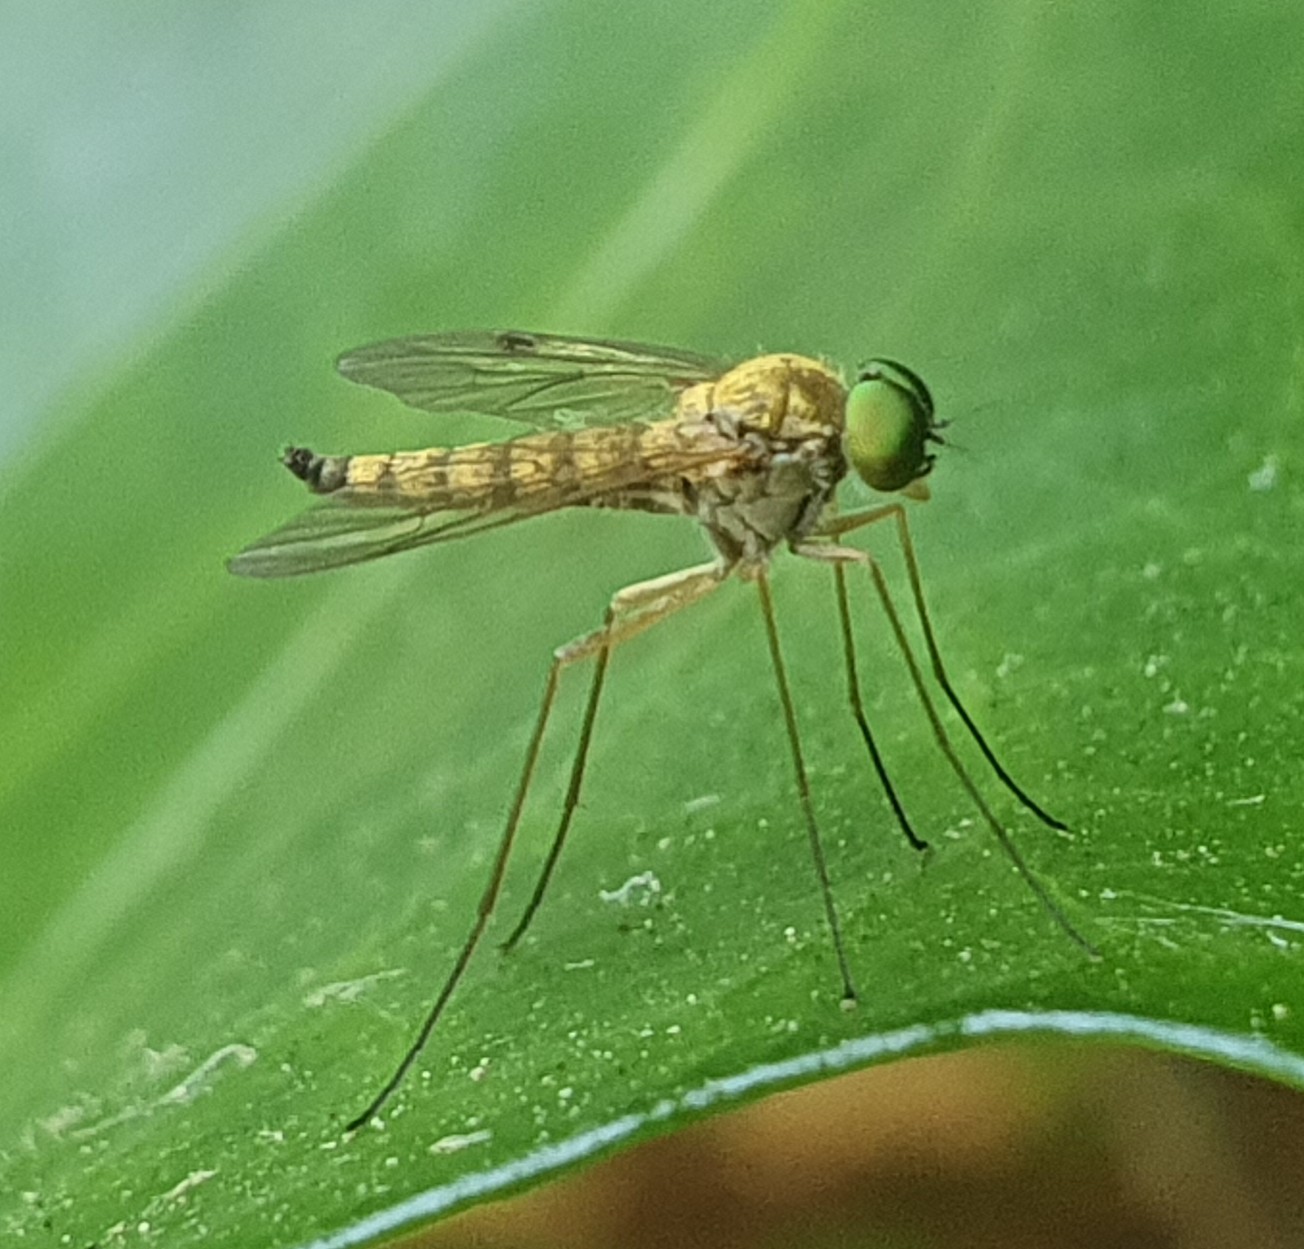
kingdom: Animalia
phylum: Arthropoda
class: Insecta
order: Diptera
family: Rhagionidae
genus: Chrysopilus
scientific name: Chrysopilus asiliformis
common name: Little snipefly
